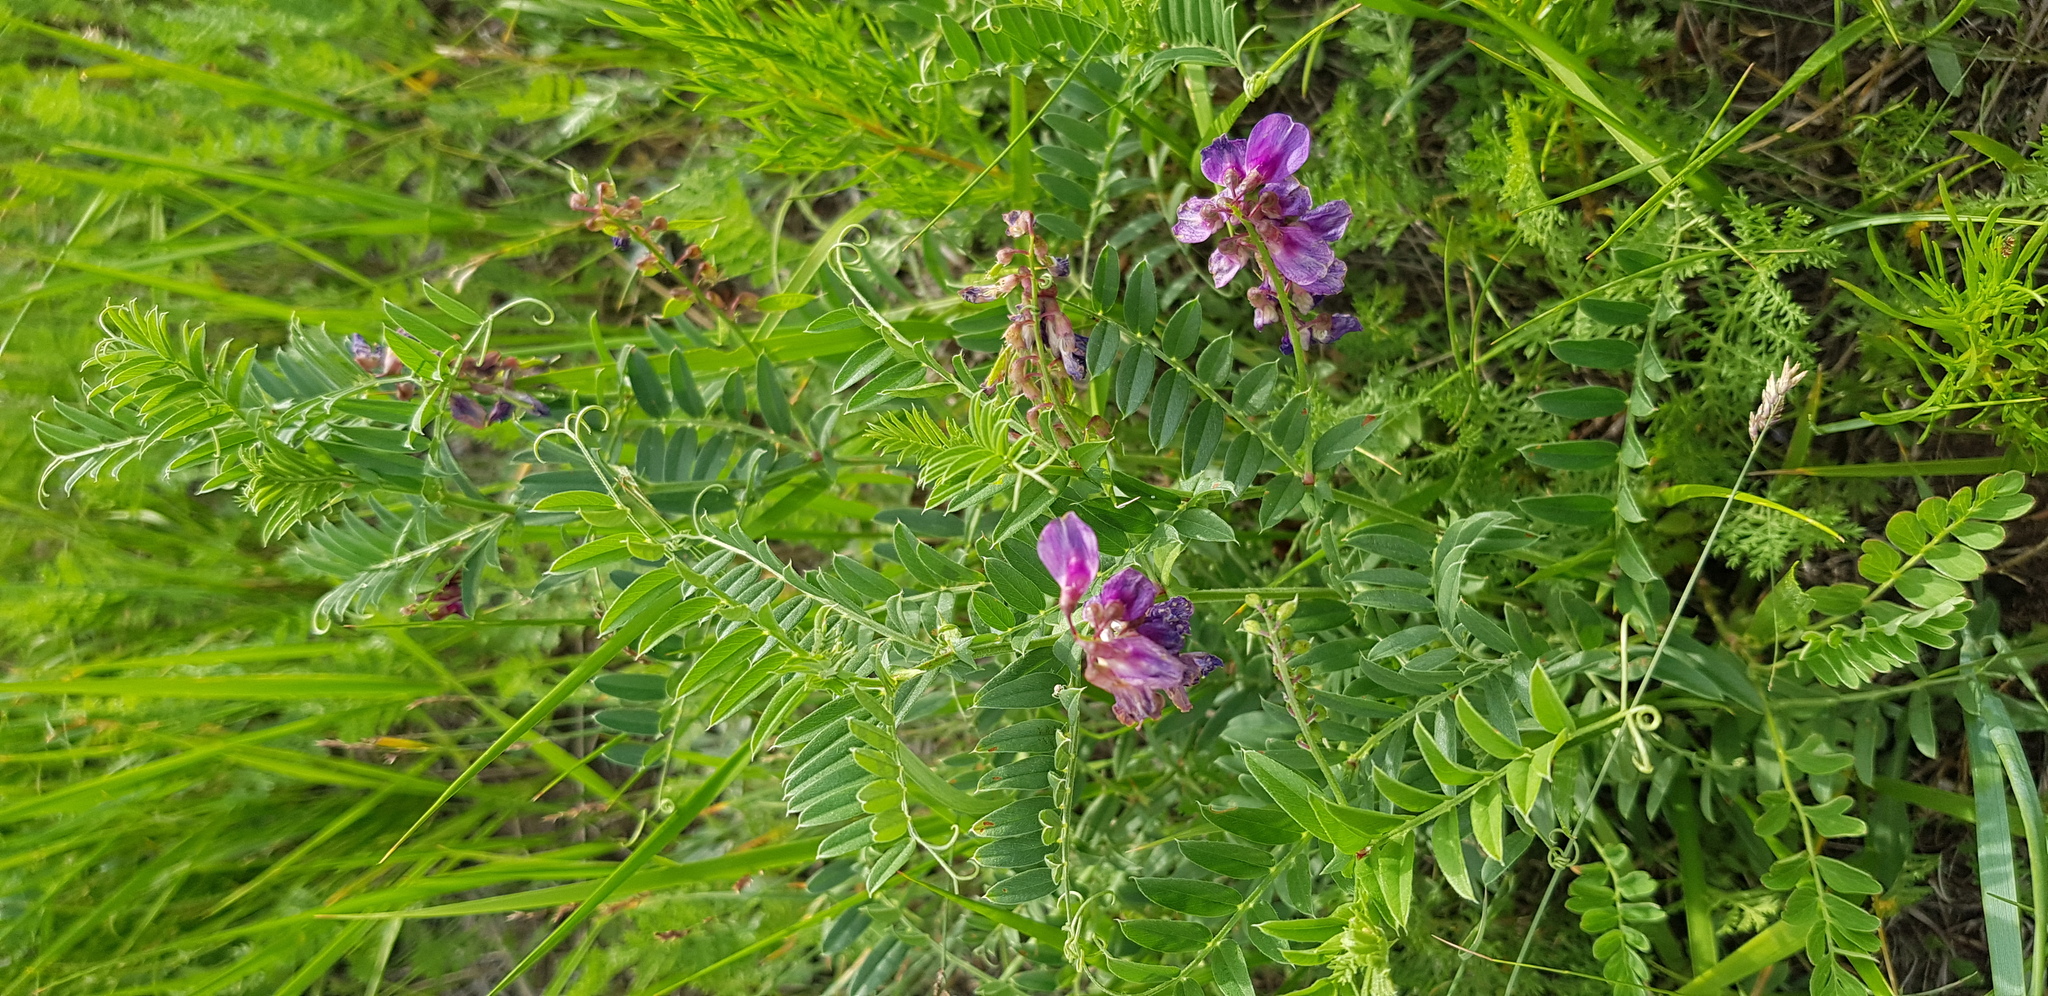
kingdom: Plantae
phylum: Tracheophyta
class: Magnoliopsida
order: Fabales
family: Fabaceae
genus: Vicia
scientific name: Vicia amoena
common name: Cheder ebs
